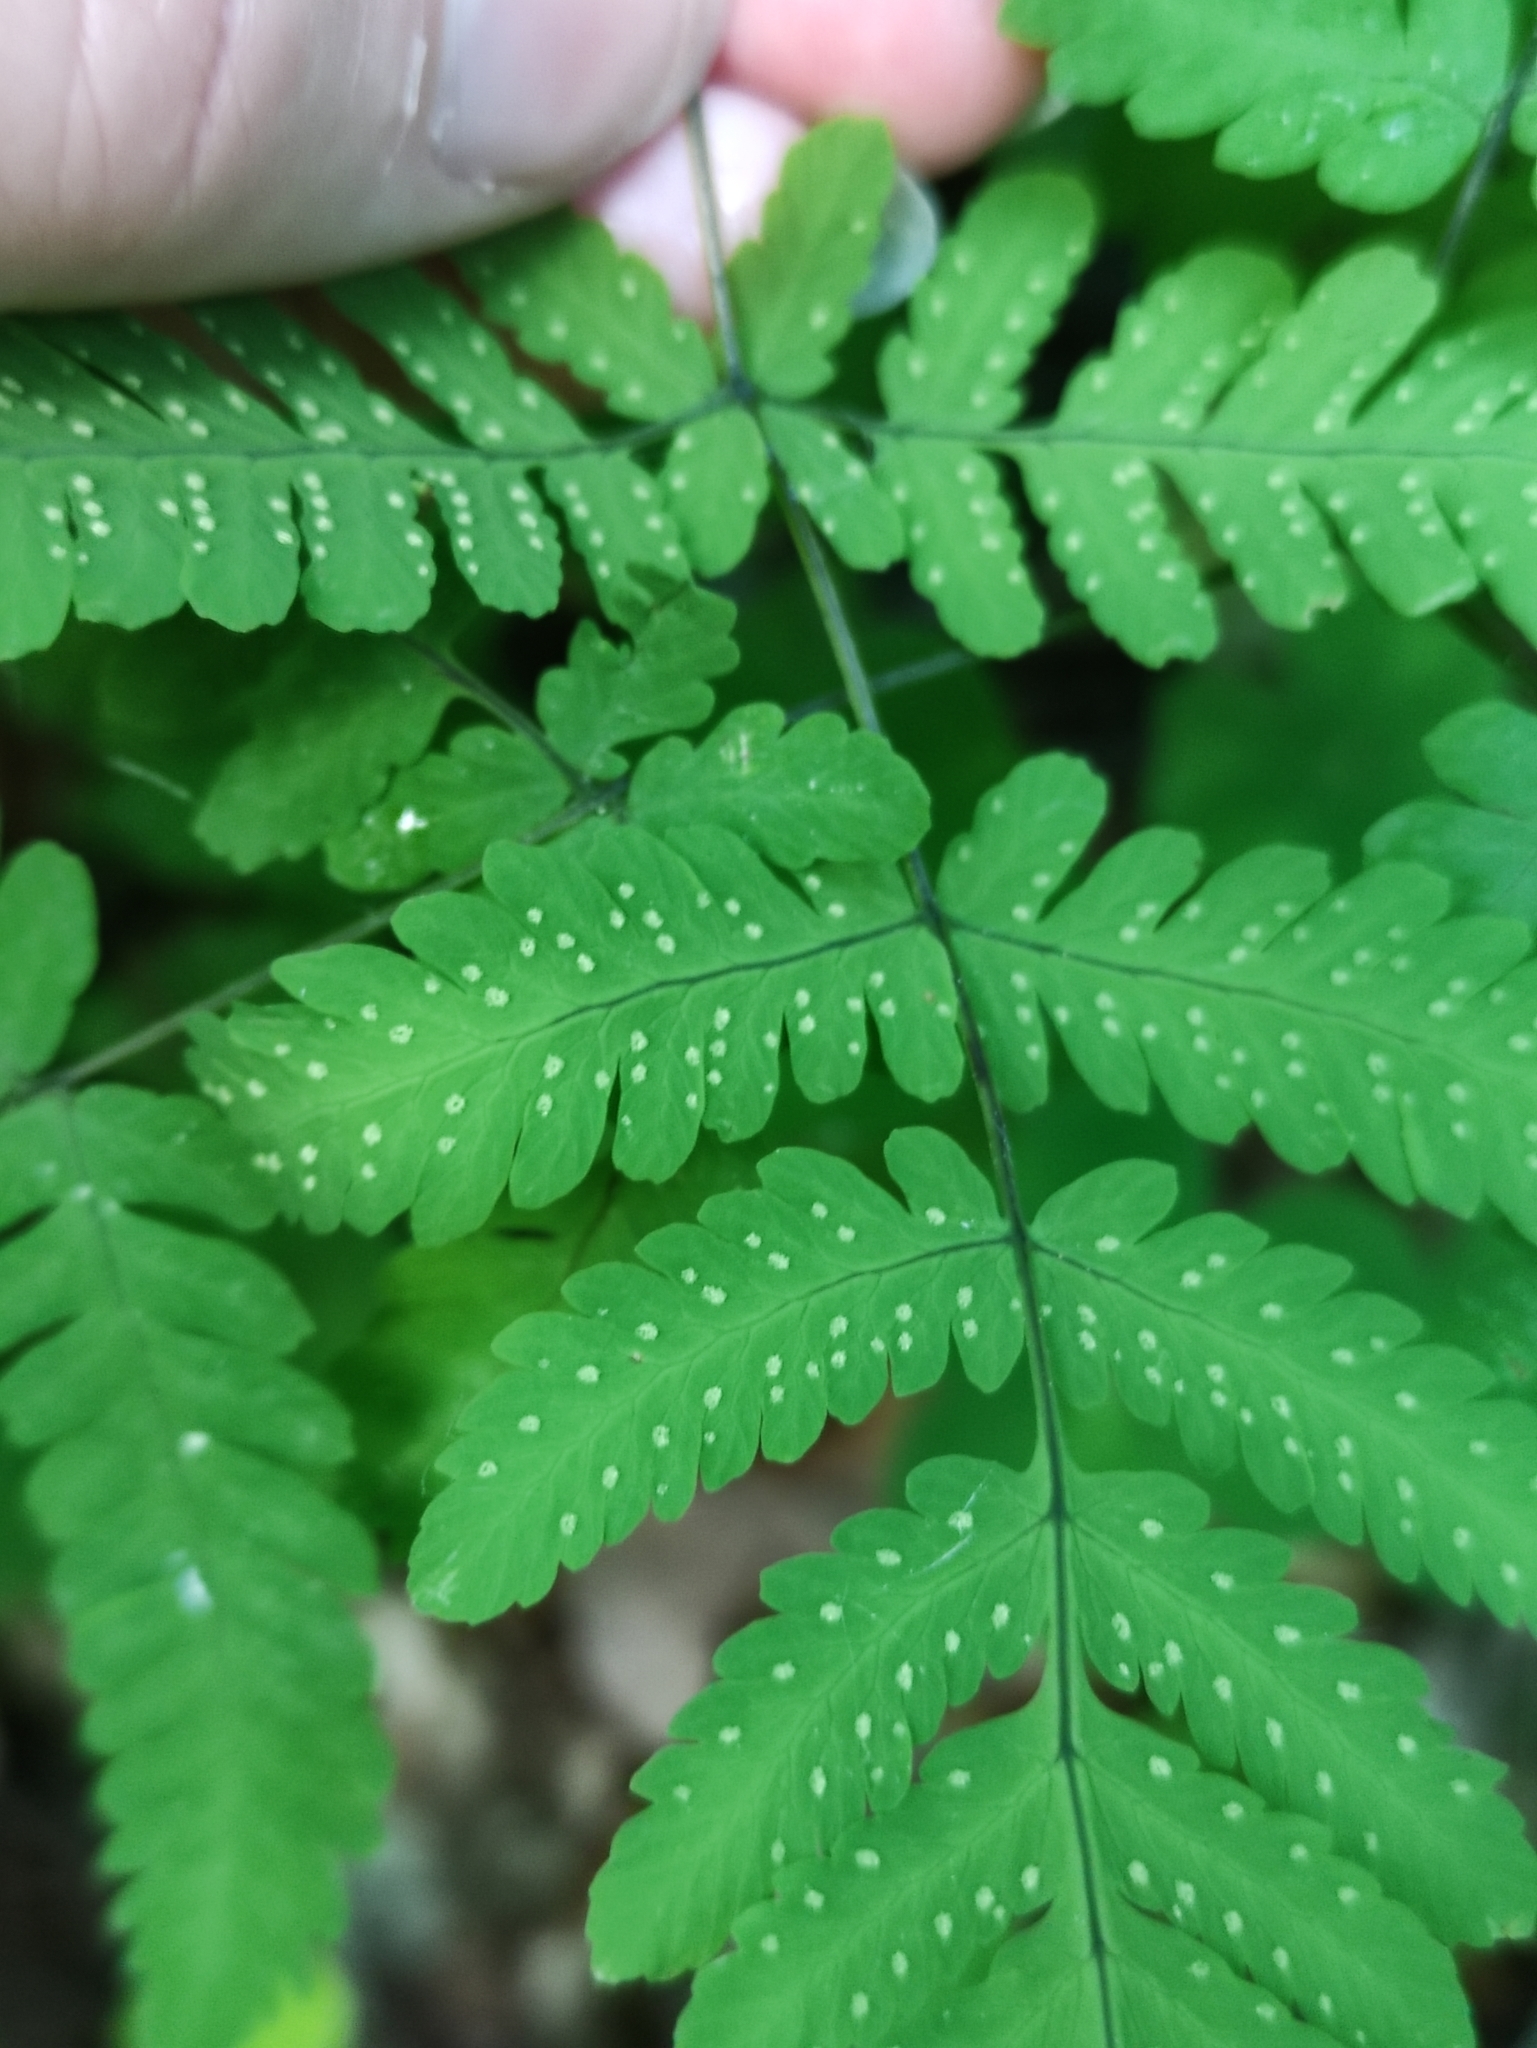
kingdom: Plantae
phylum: Tracheophyta
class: Polypodiopsida
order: Polypodiales
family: Cystopteridaceae
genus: Gymnocarpium
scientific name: Gymnocarpium dryopteris
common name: Oak fern
